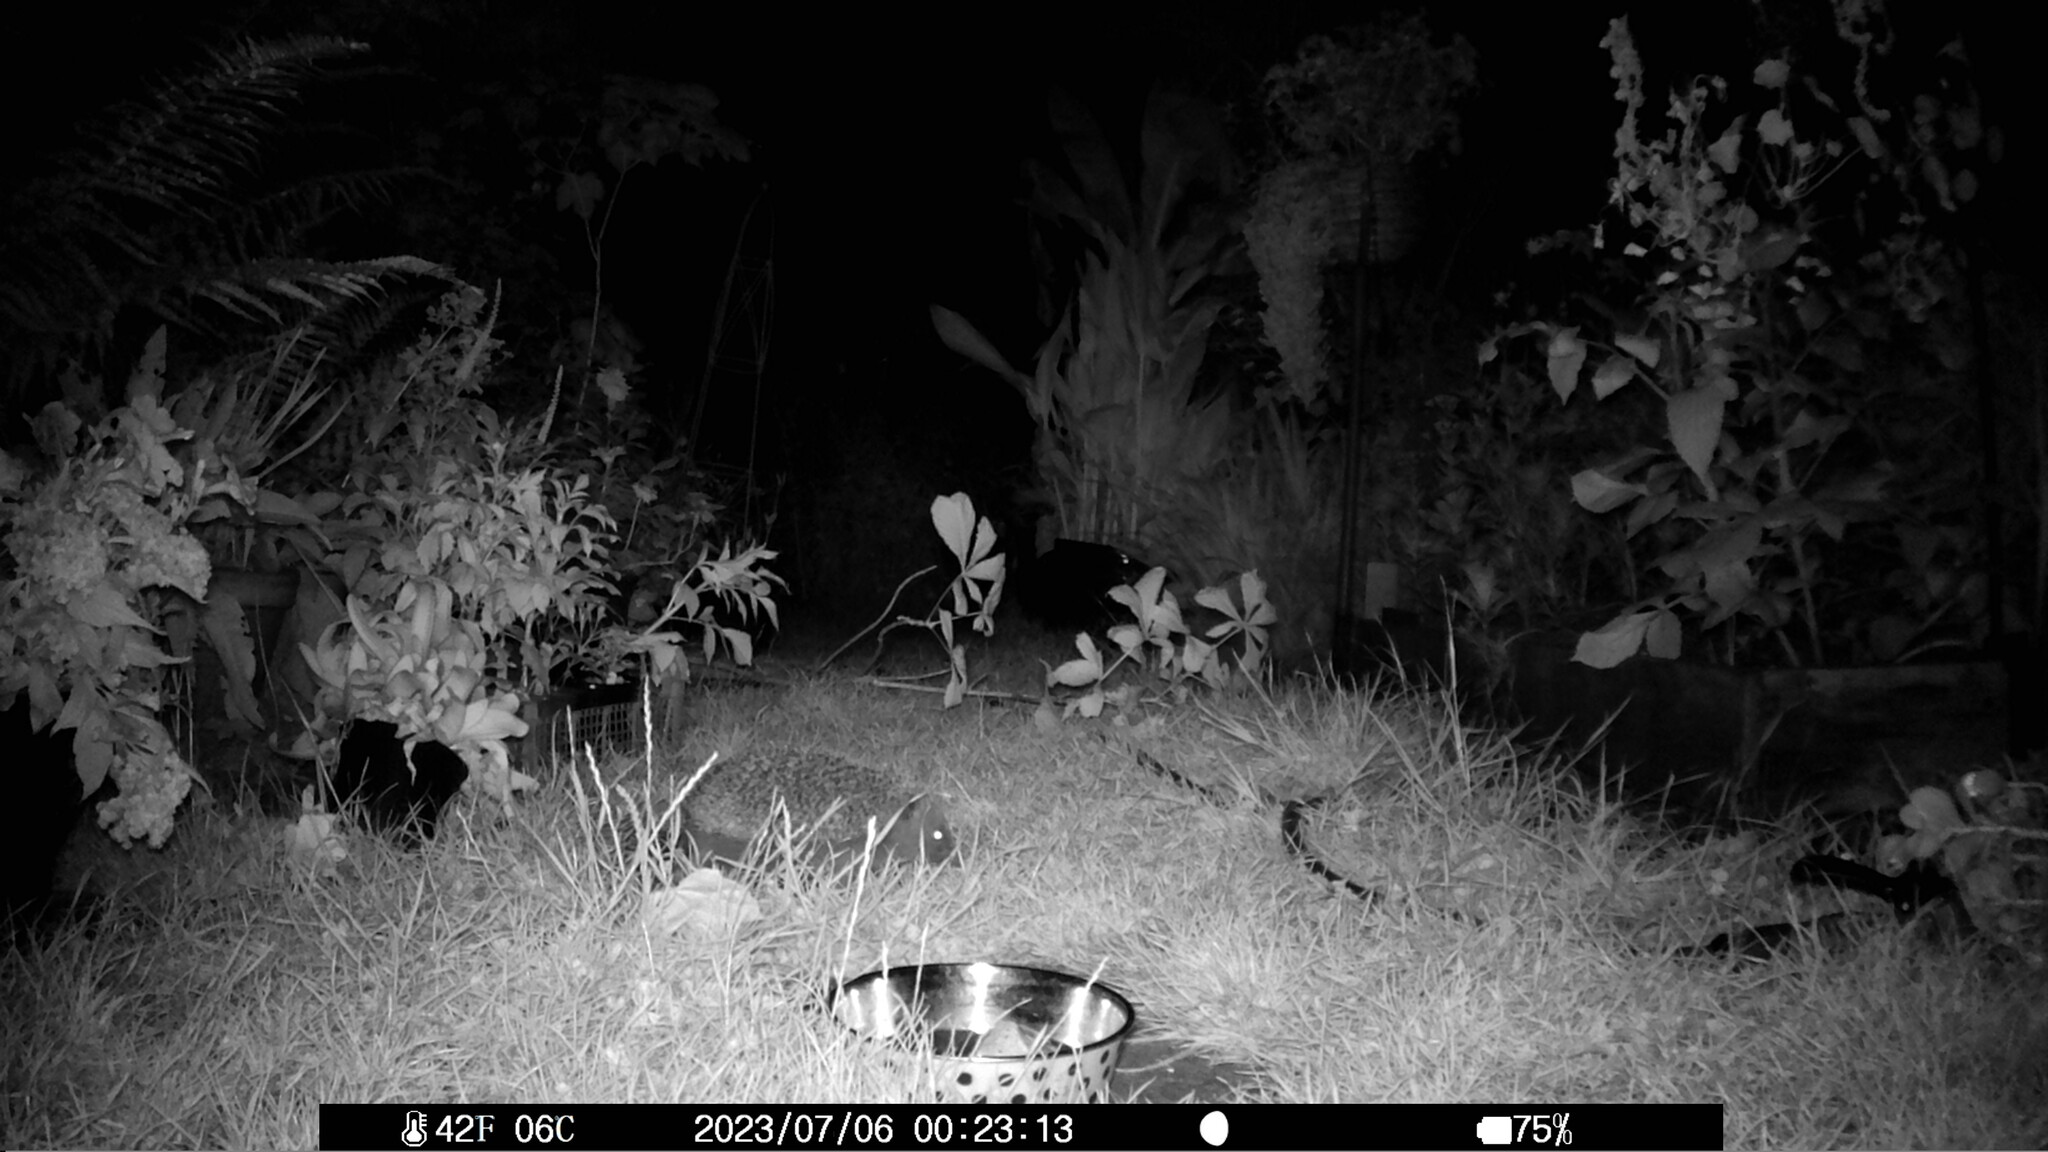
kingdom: Animalia
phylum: Chordata
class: Mammalia
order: Erinaceomorpha
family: Erinaceidae
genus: Erinaceus
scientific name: Erinaceus europaeus
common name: West european hedgehog
